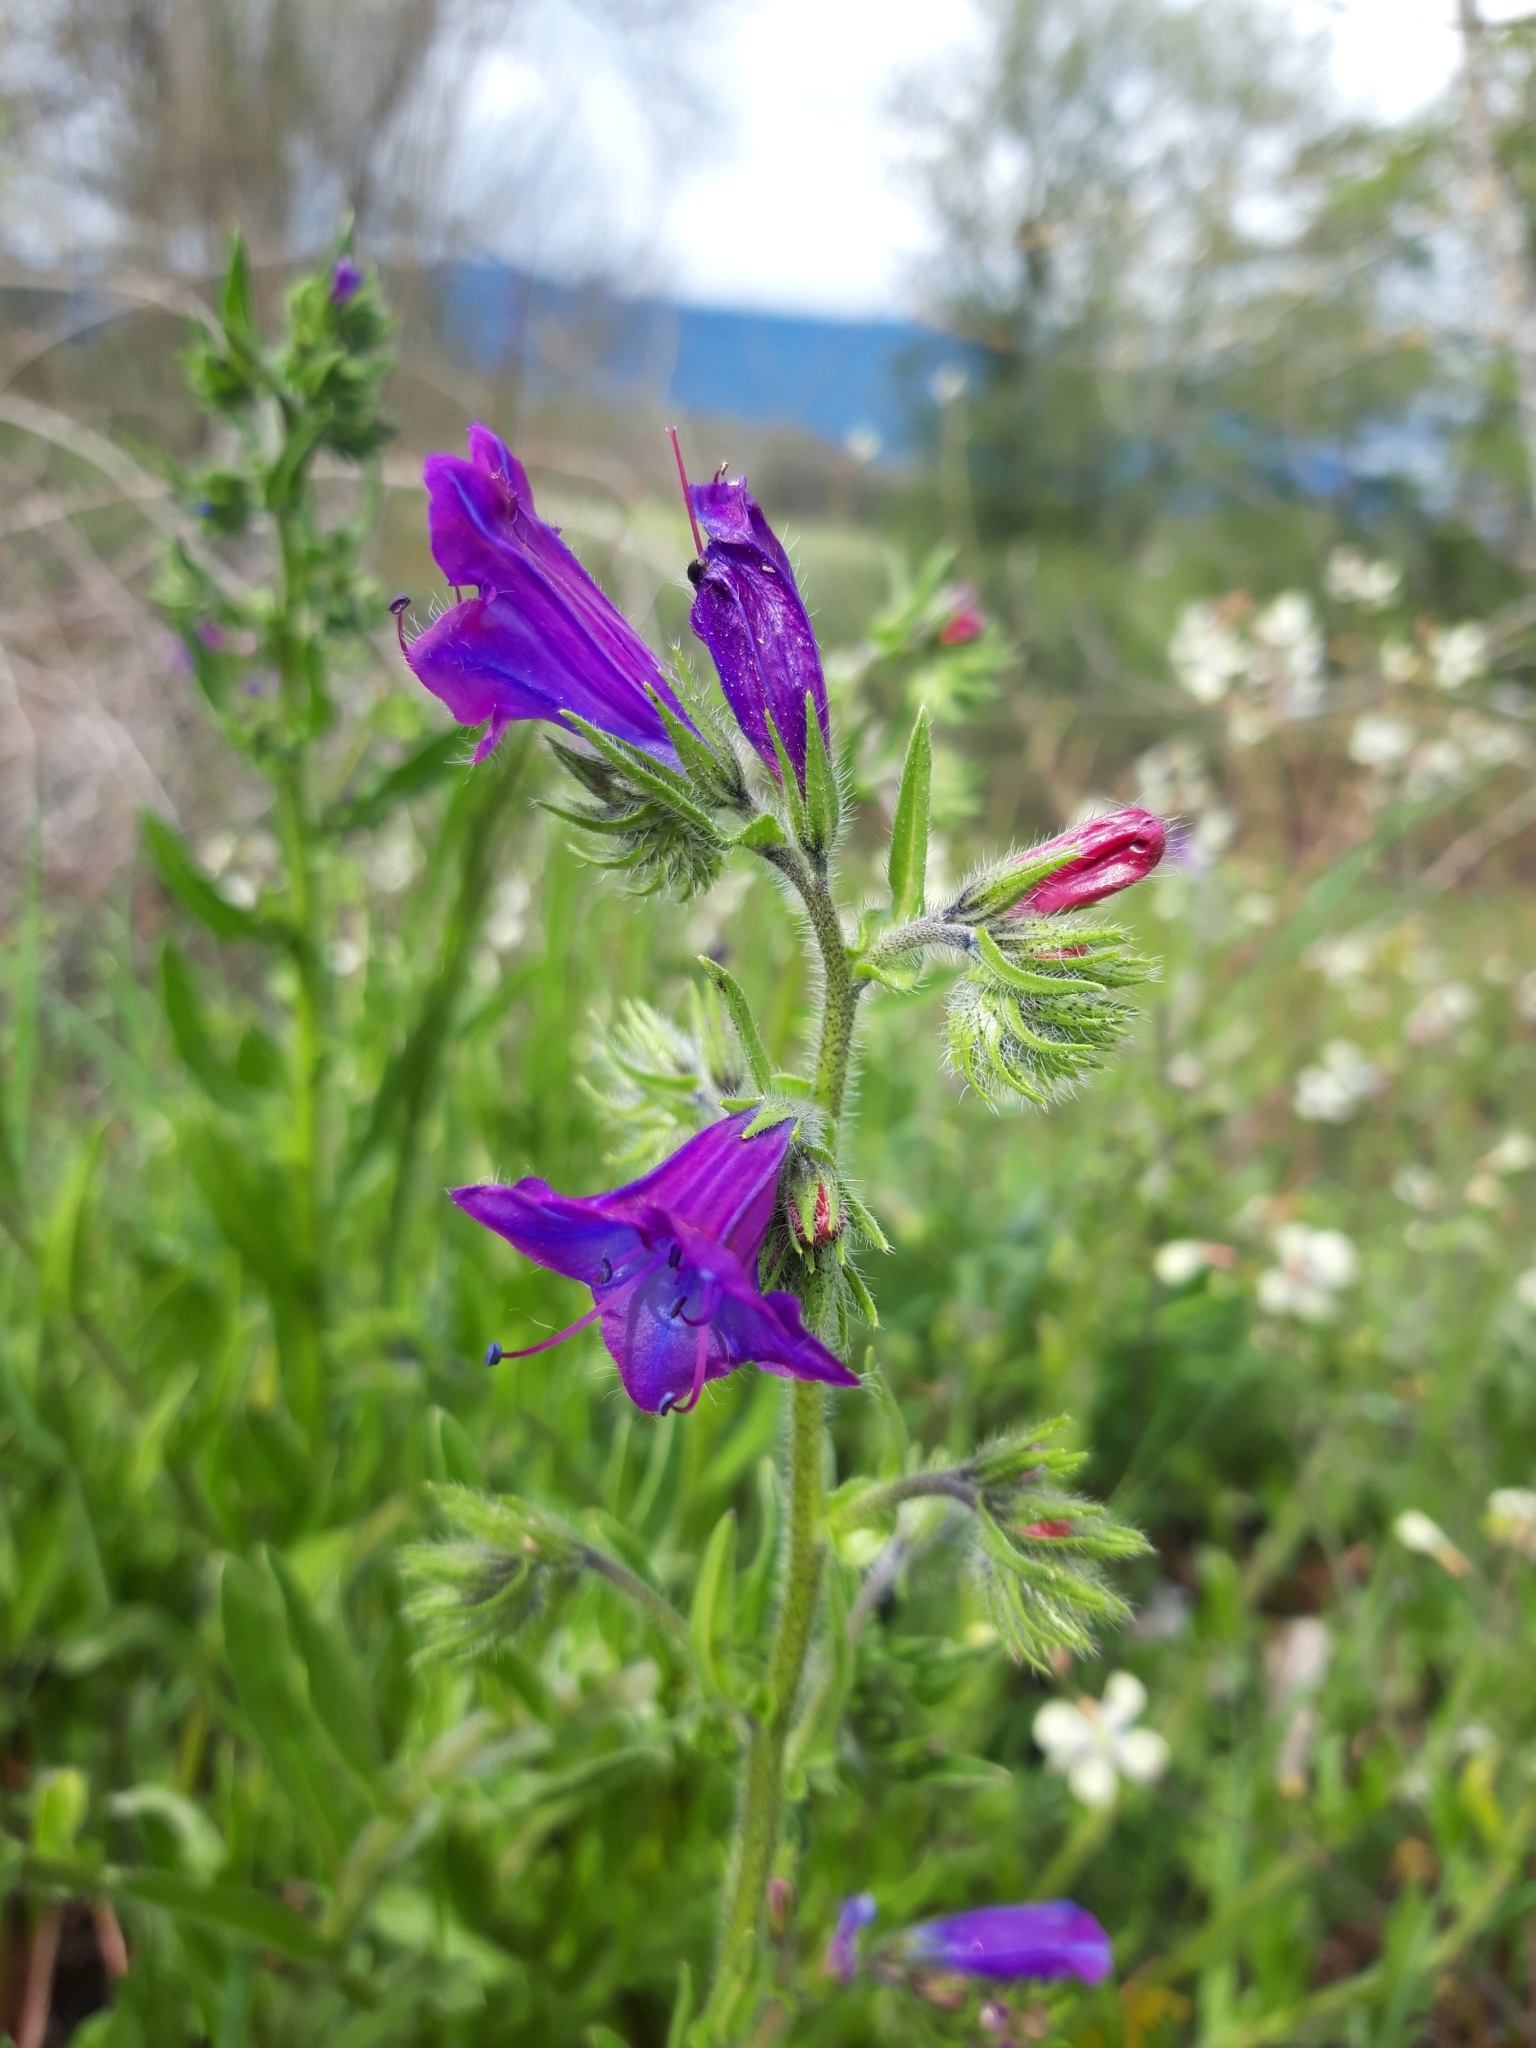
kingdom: Plantae
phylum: Tracheophyta
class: Magnoliopsida
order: Boraginales
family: Boraginaceae
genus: Echium
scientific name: Echium plantagineum
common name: Purple viper's-bugloss
